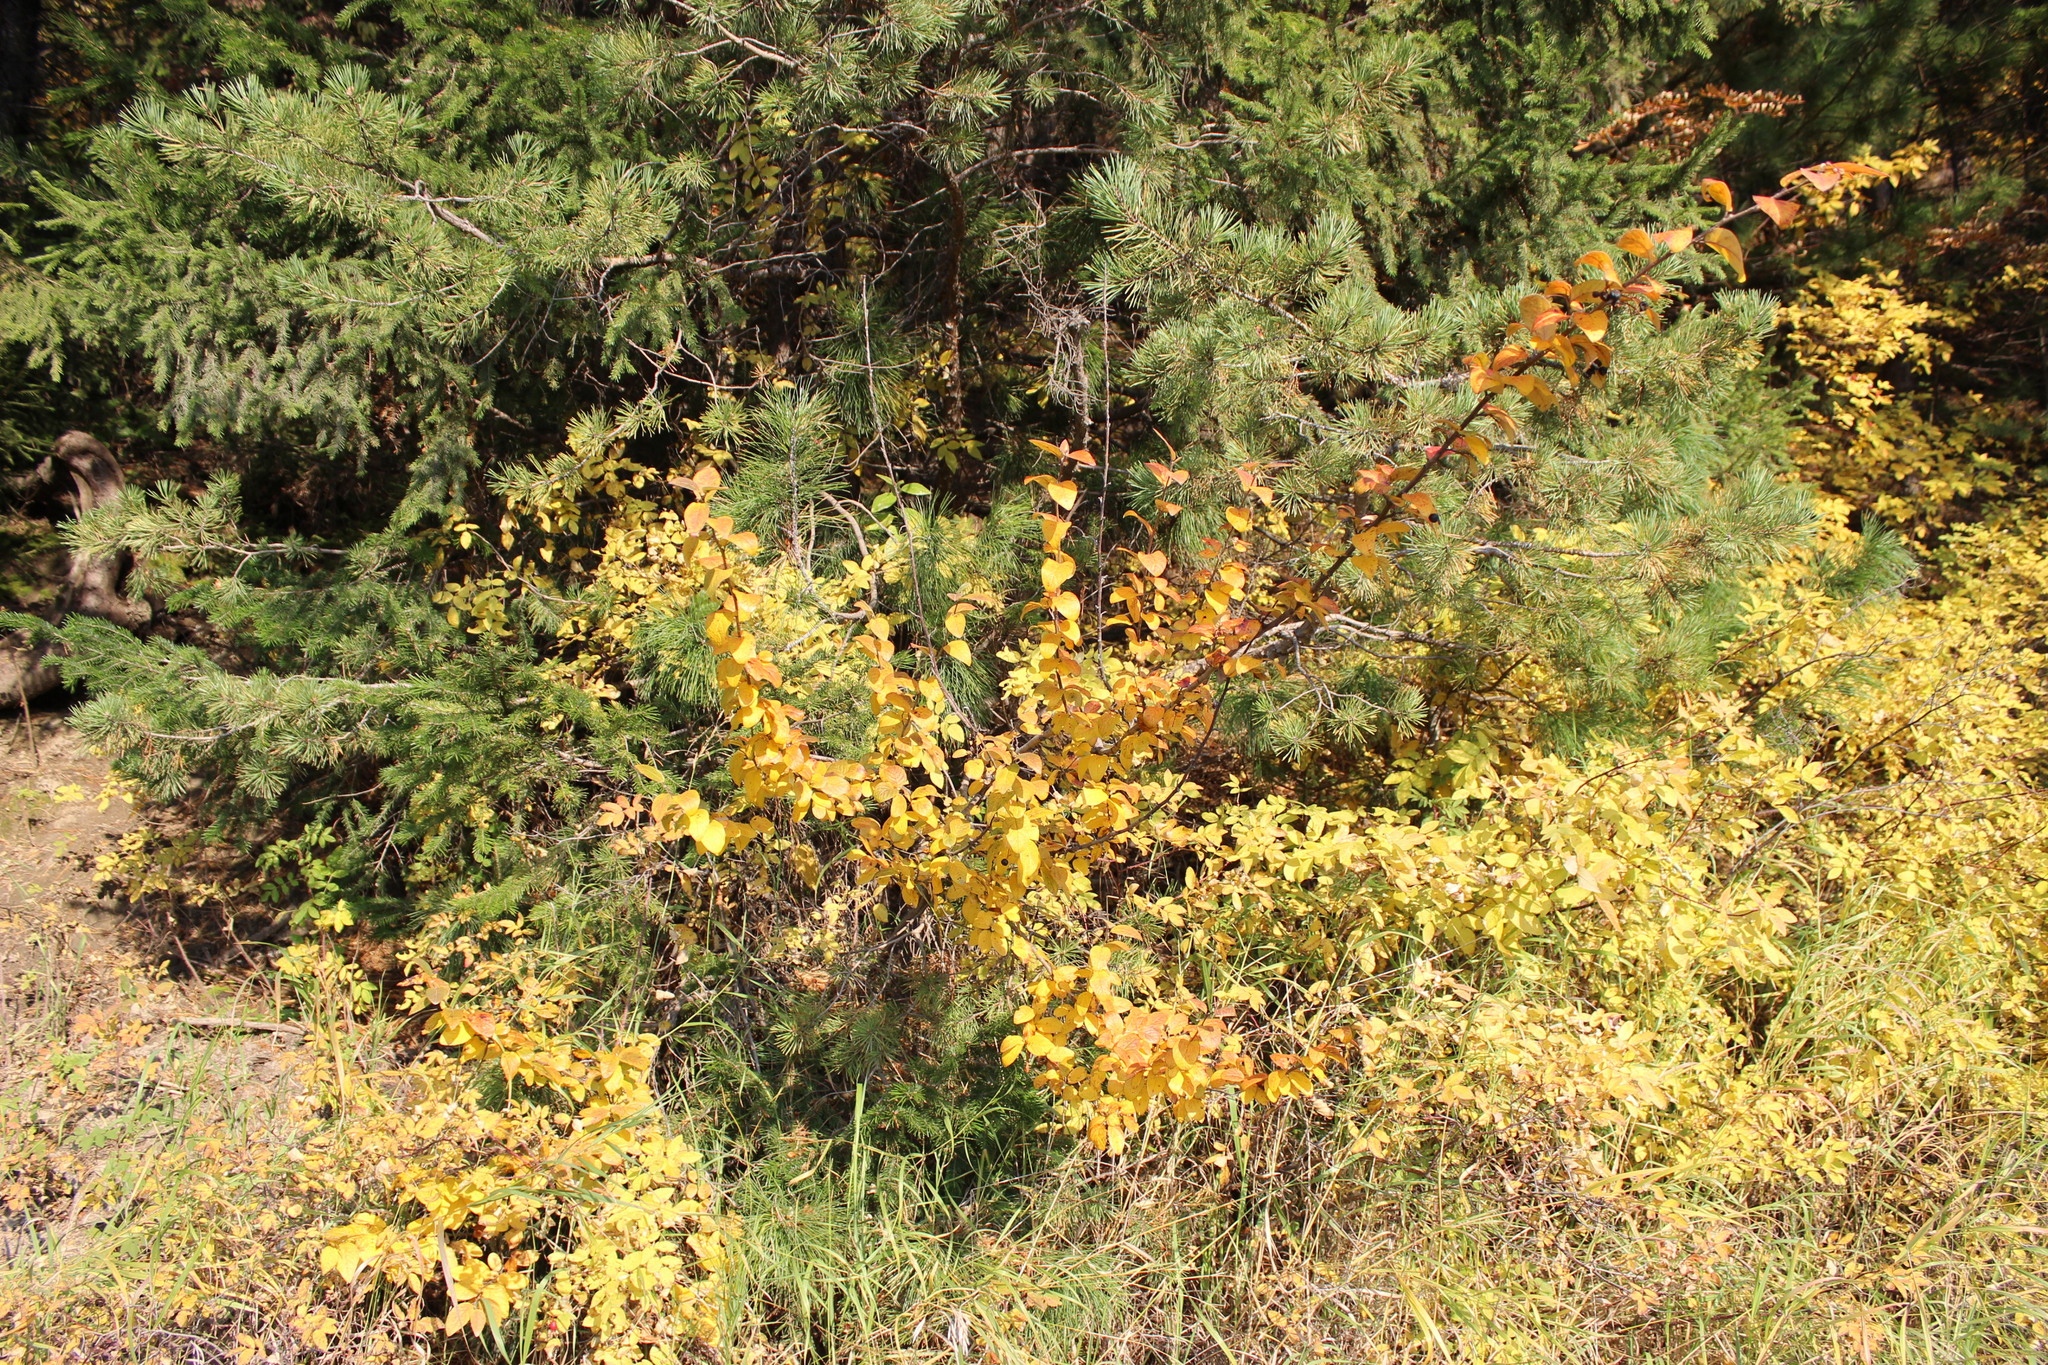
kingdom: Plantae
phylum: Tracheophyta
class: Magnoliopsida
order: Rosales
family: Rosaceae
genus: Cotoneaster
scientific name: Cotoneaster melanocarpus
